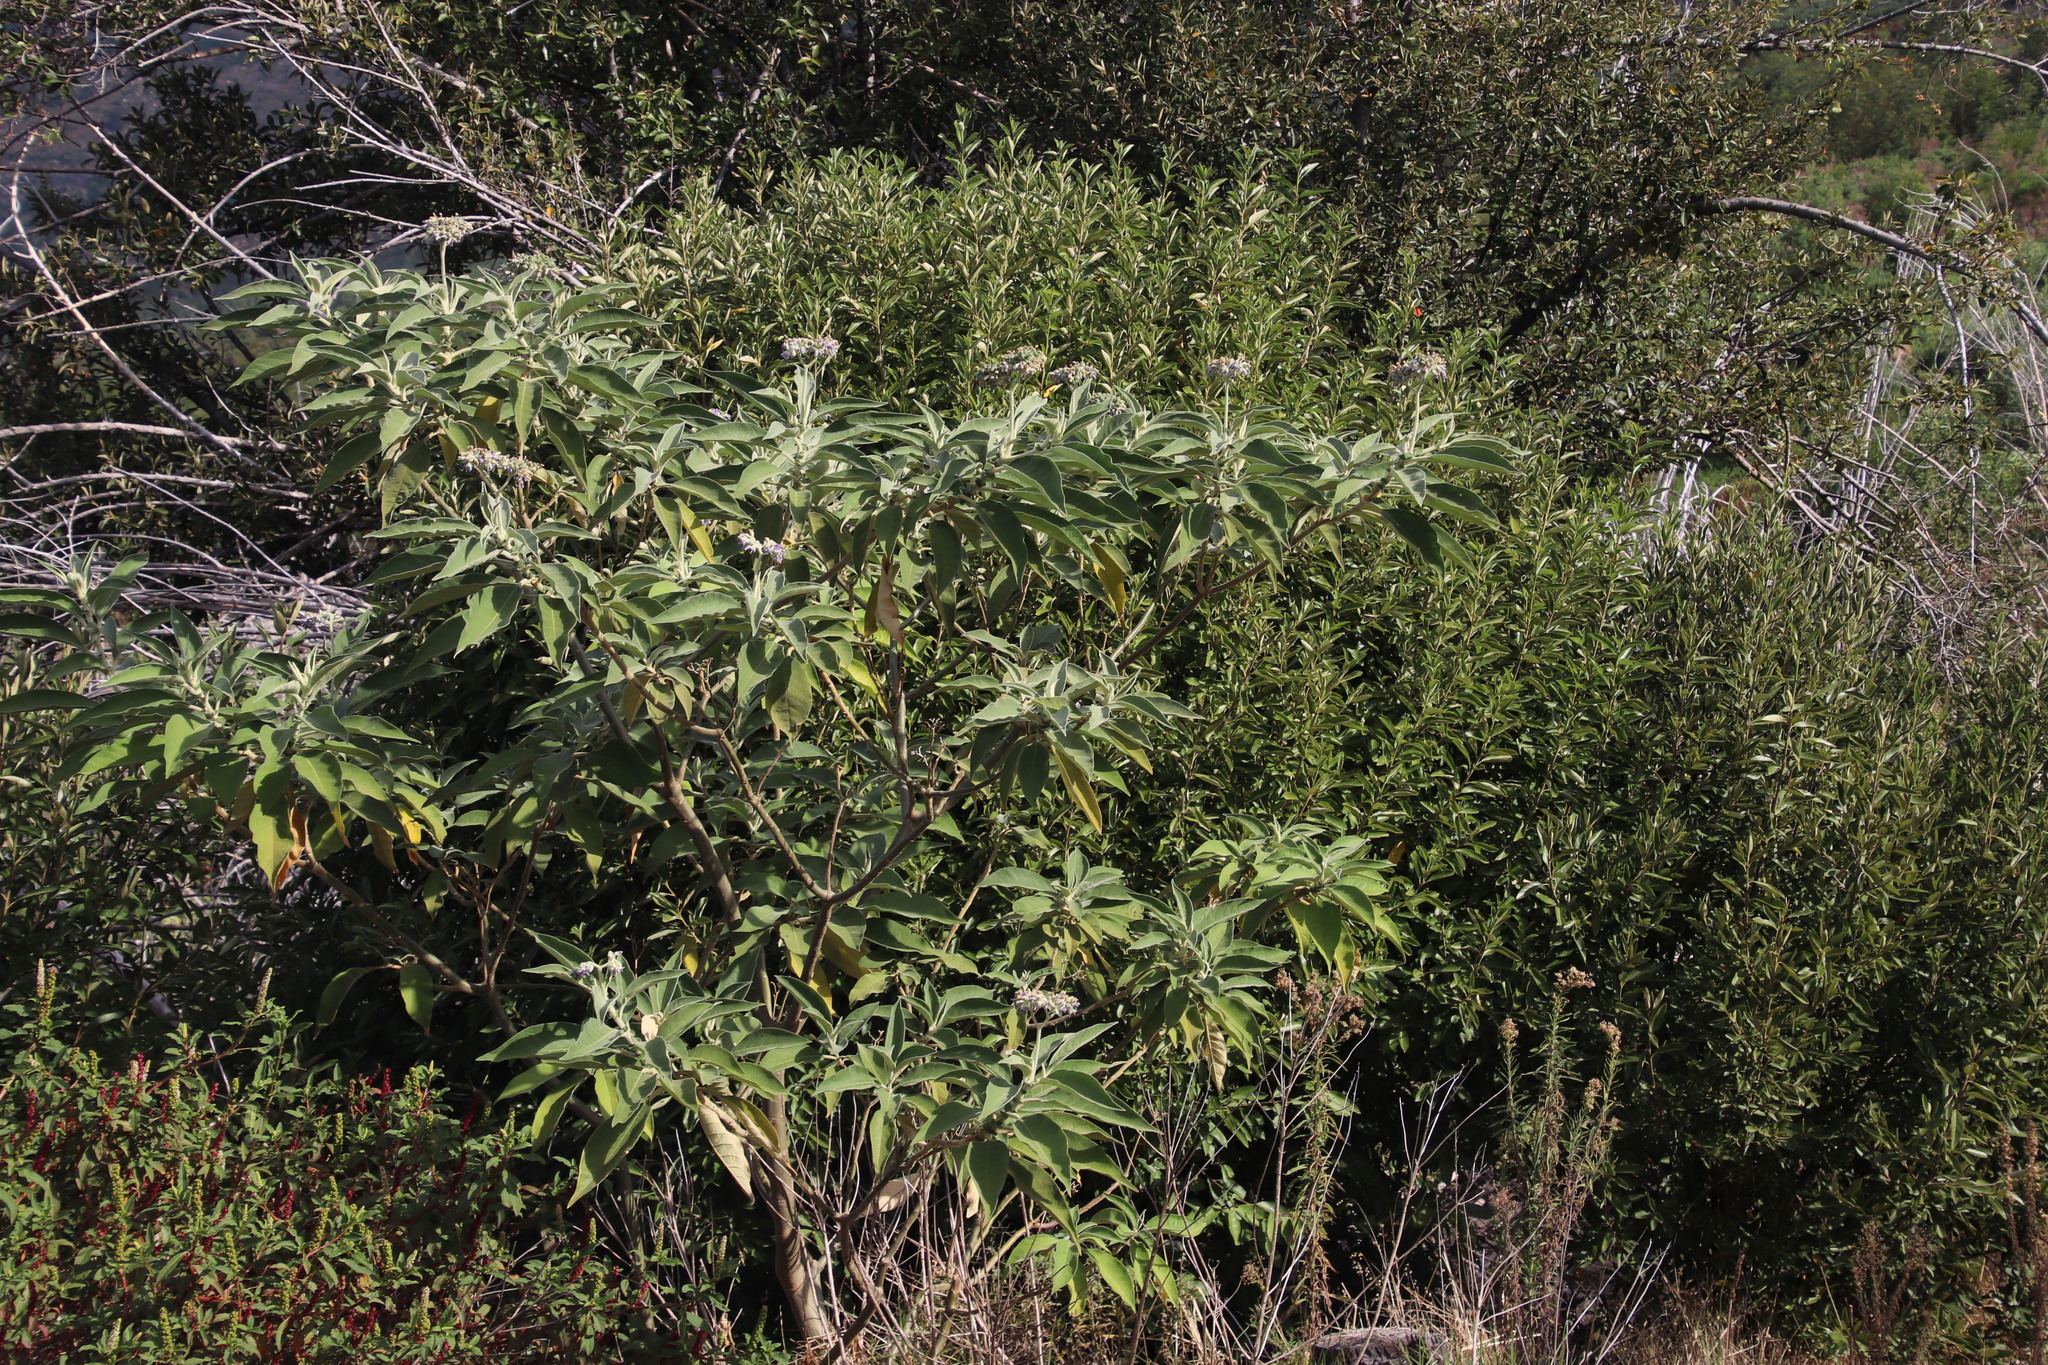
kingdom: Plantae
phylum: Tracheophyta
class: Magnoliopsida
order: Solanales
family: Solanaceae
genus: Solanum
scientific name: Solanum mauritianum
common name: Earleaf nightshade
